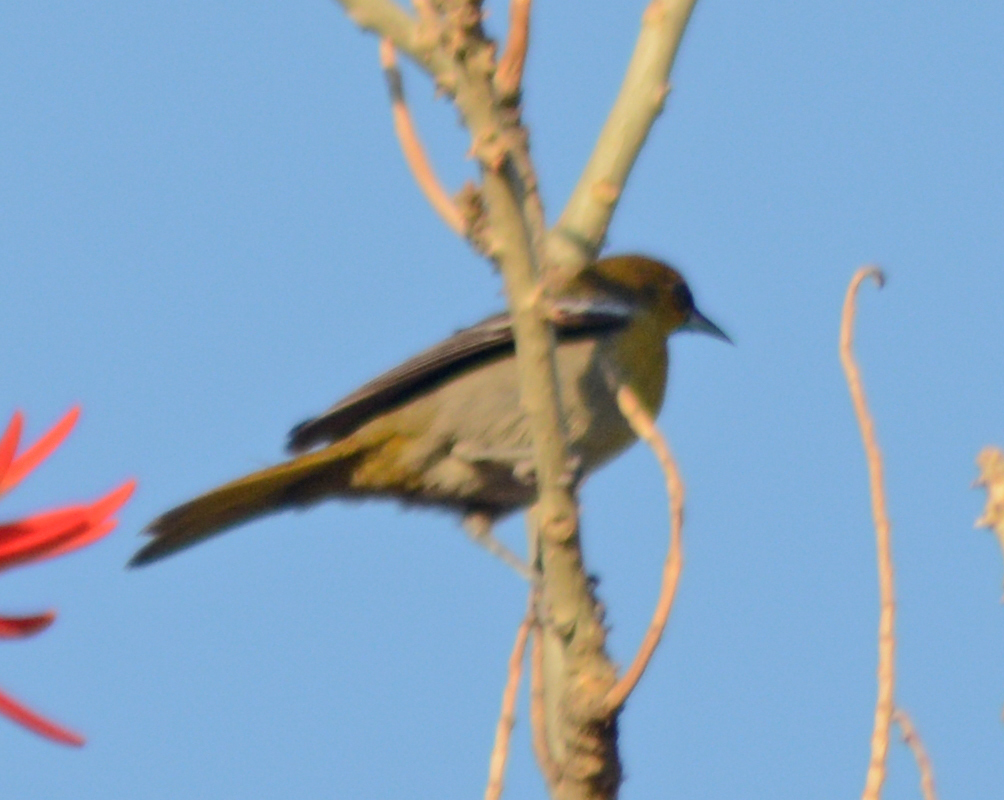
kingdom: Animalia
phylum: Chordata
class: Aves
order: Passeriformes
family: Icteridae
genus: Icterus
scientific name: Icterus abeillei
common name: Black-backed oriole
